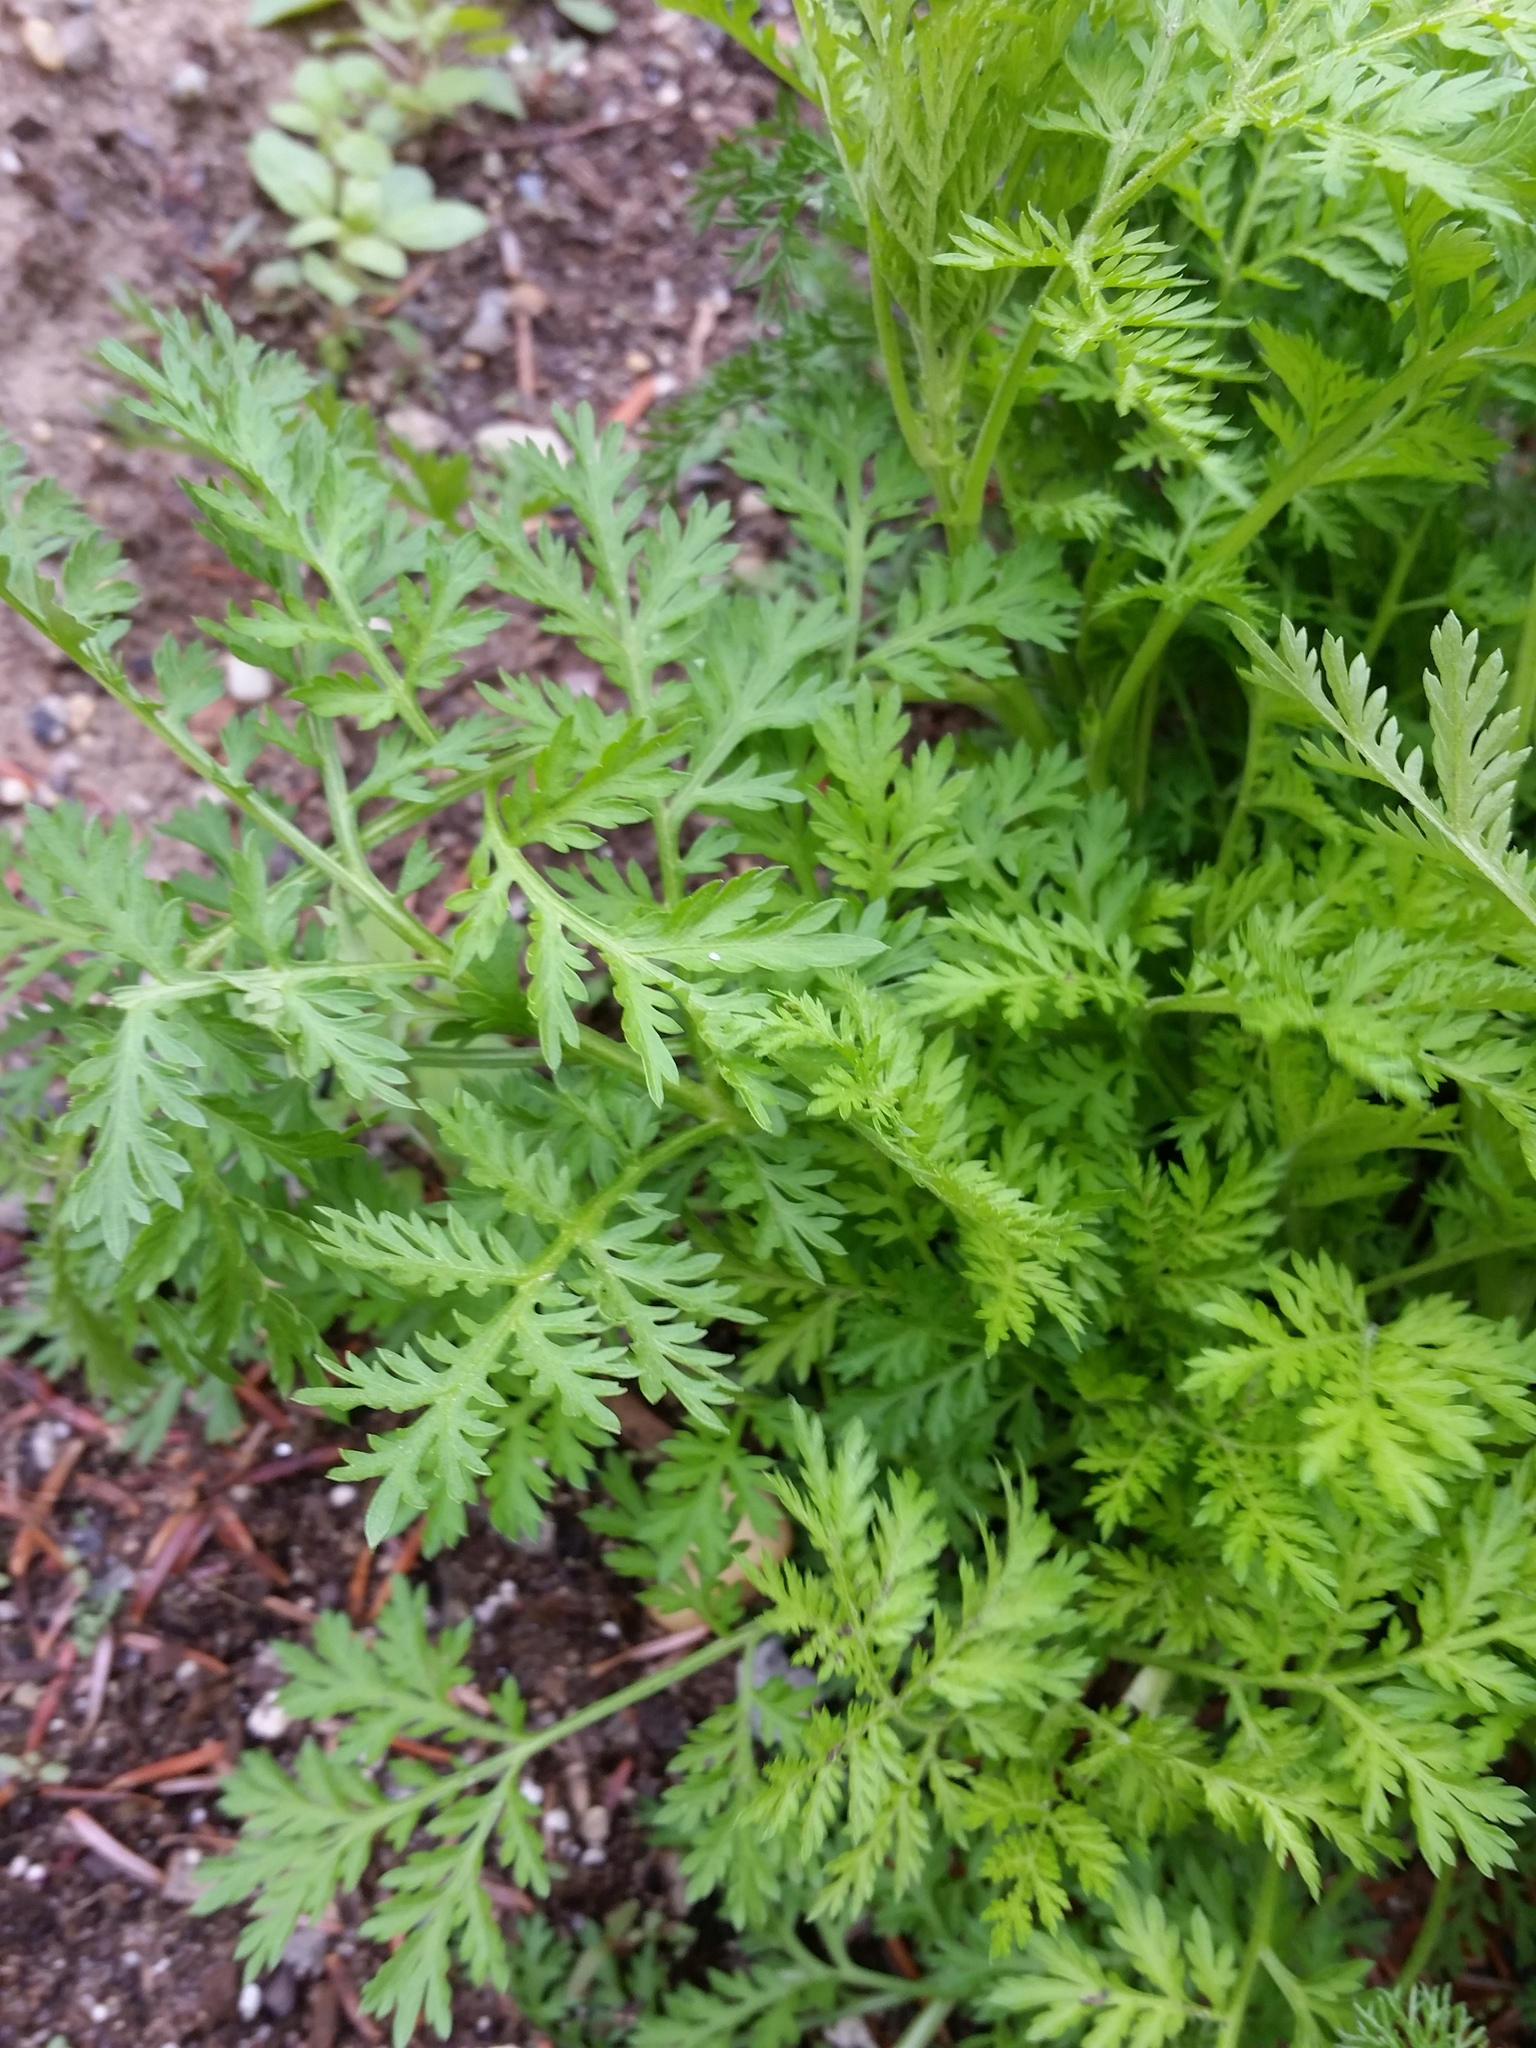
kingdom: Plantae
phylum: Tracheophyta
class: Magnoliopsida
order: Asterales
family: Asteraceae
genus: Artemisia
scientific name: Artemisia annua
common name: Sweet sagewort
